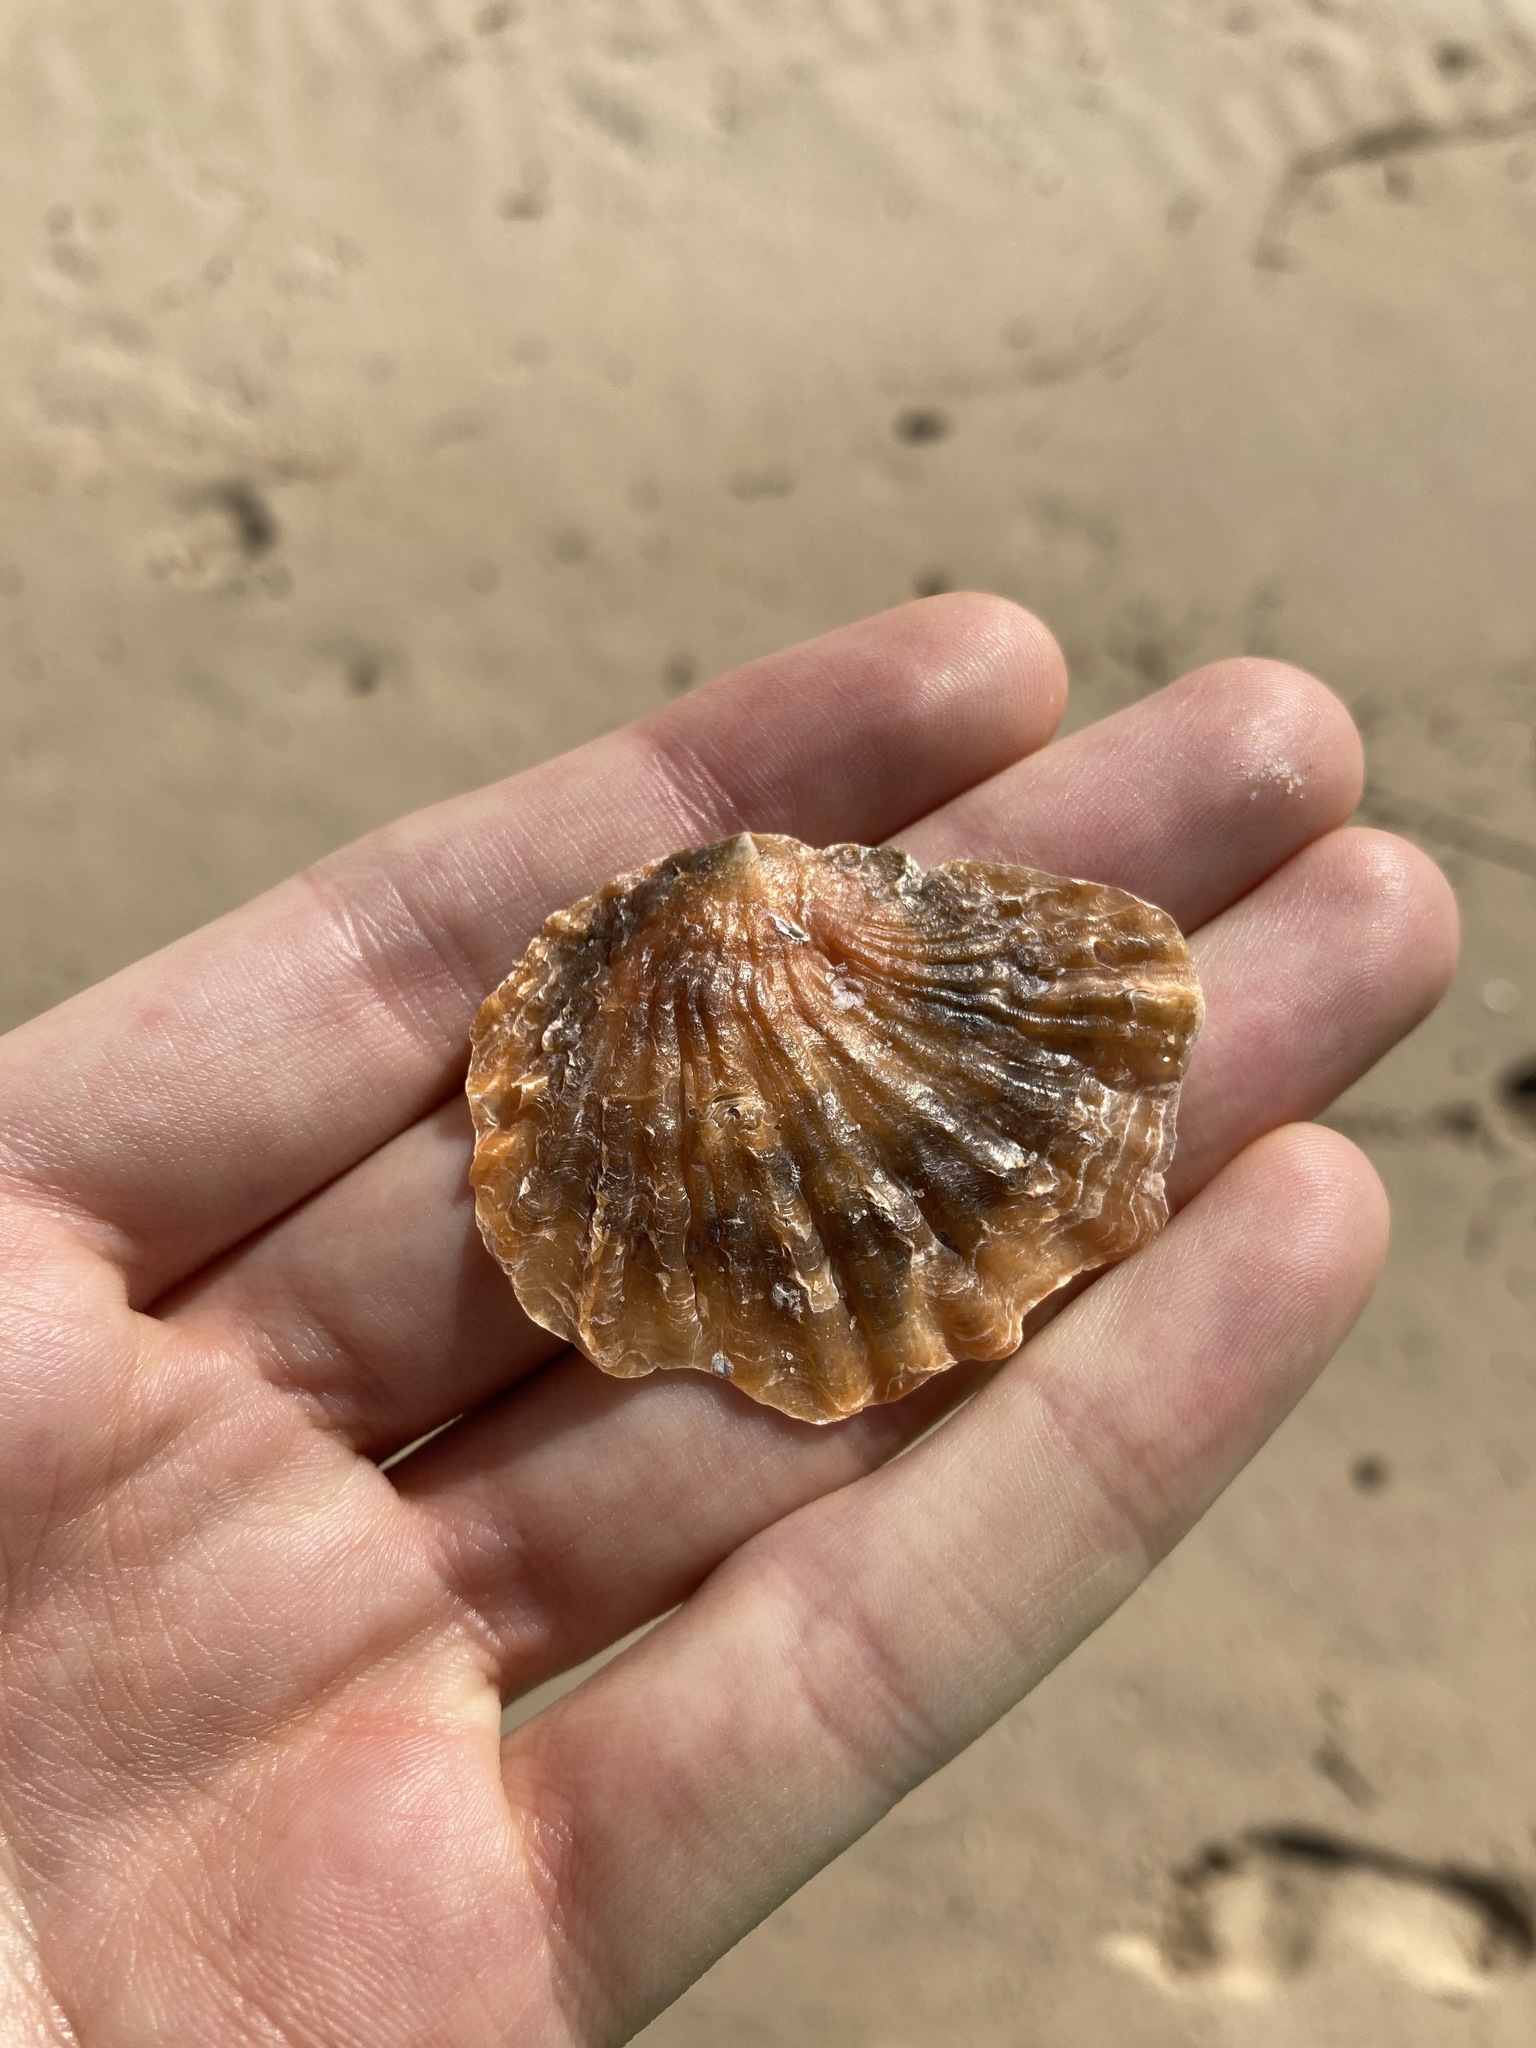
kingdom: Animalia
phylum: Mollusca
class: Bivalvia
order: Pectinida
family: Anomiidae
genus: Anomia
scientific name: Anomia trigonopsis
